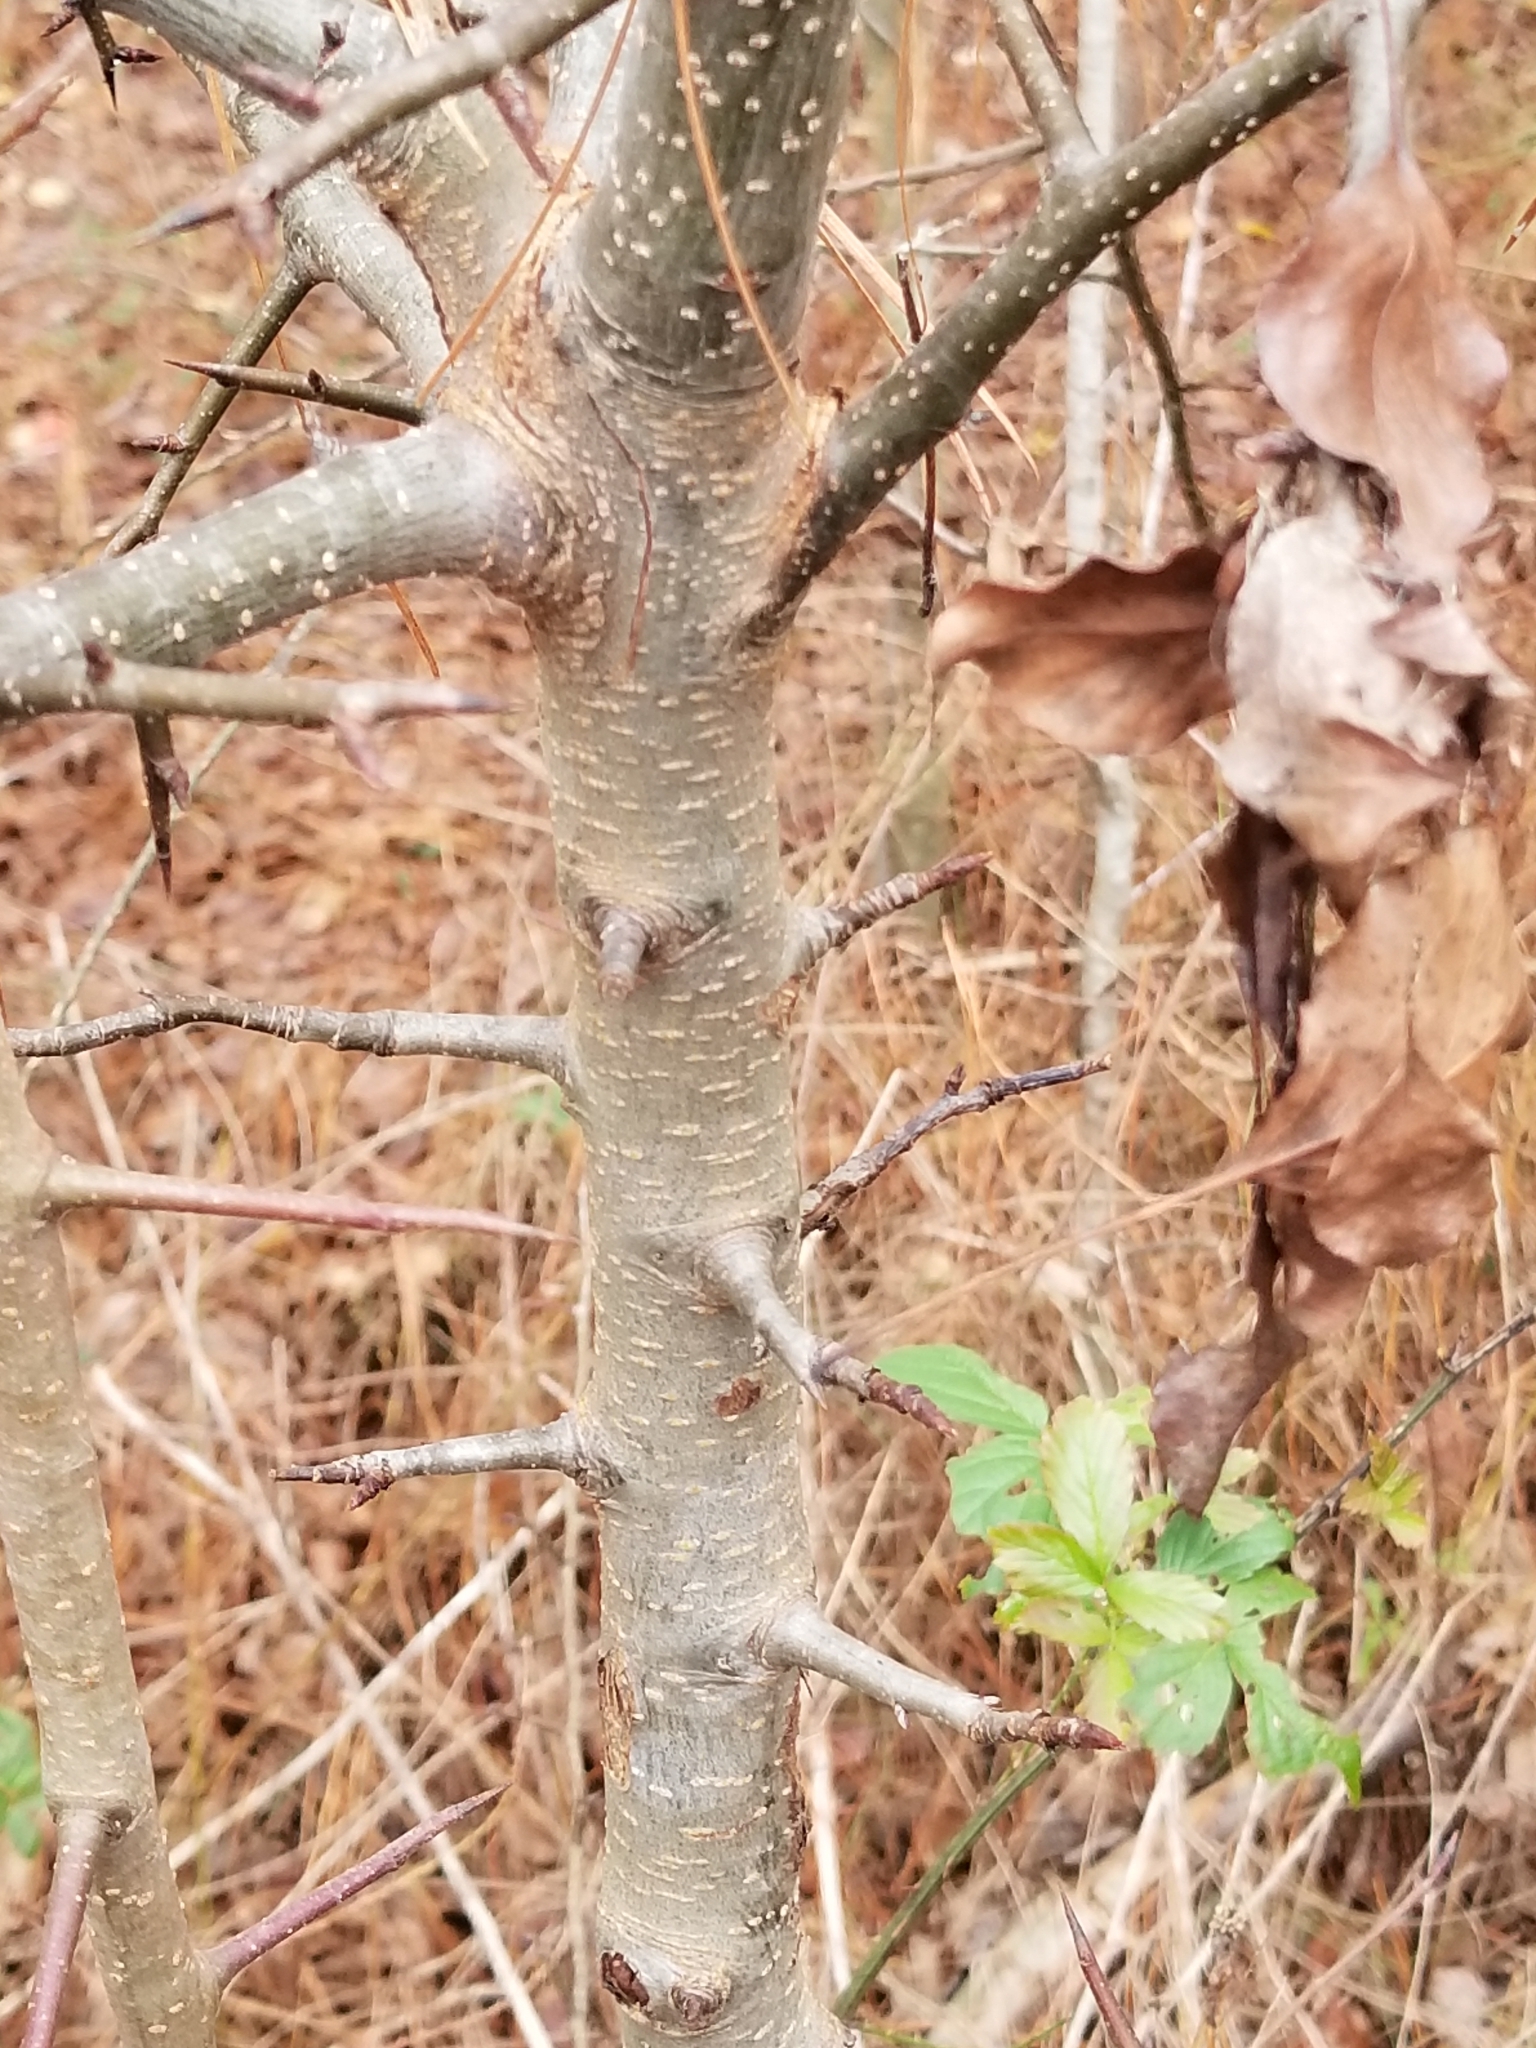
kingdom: Plantae
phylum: Tracheophyta
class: Magnoliopsida
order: Rosales
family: Rosaceae
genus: Pyrus
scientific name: Pyrus calleryana
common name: Callery pear
